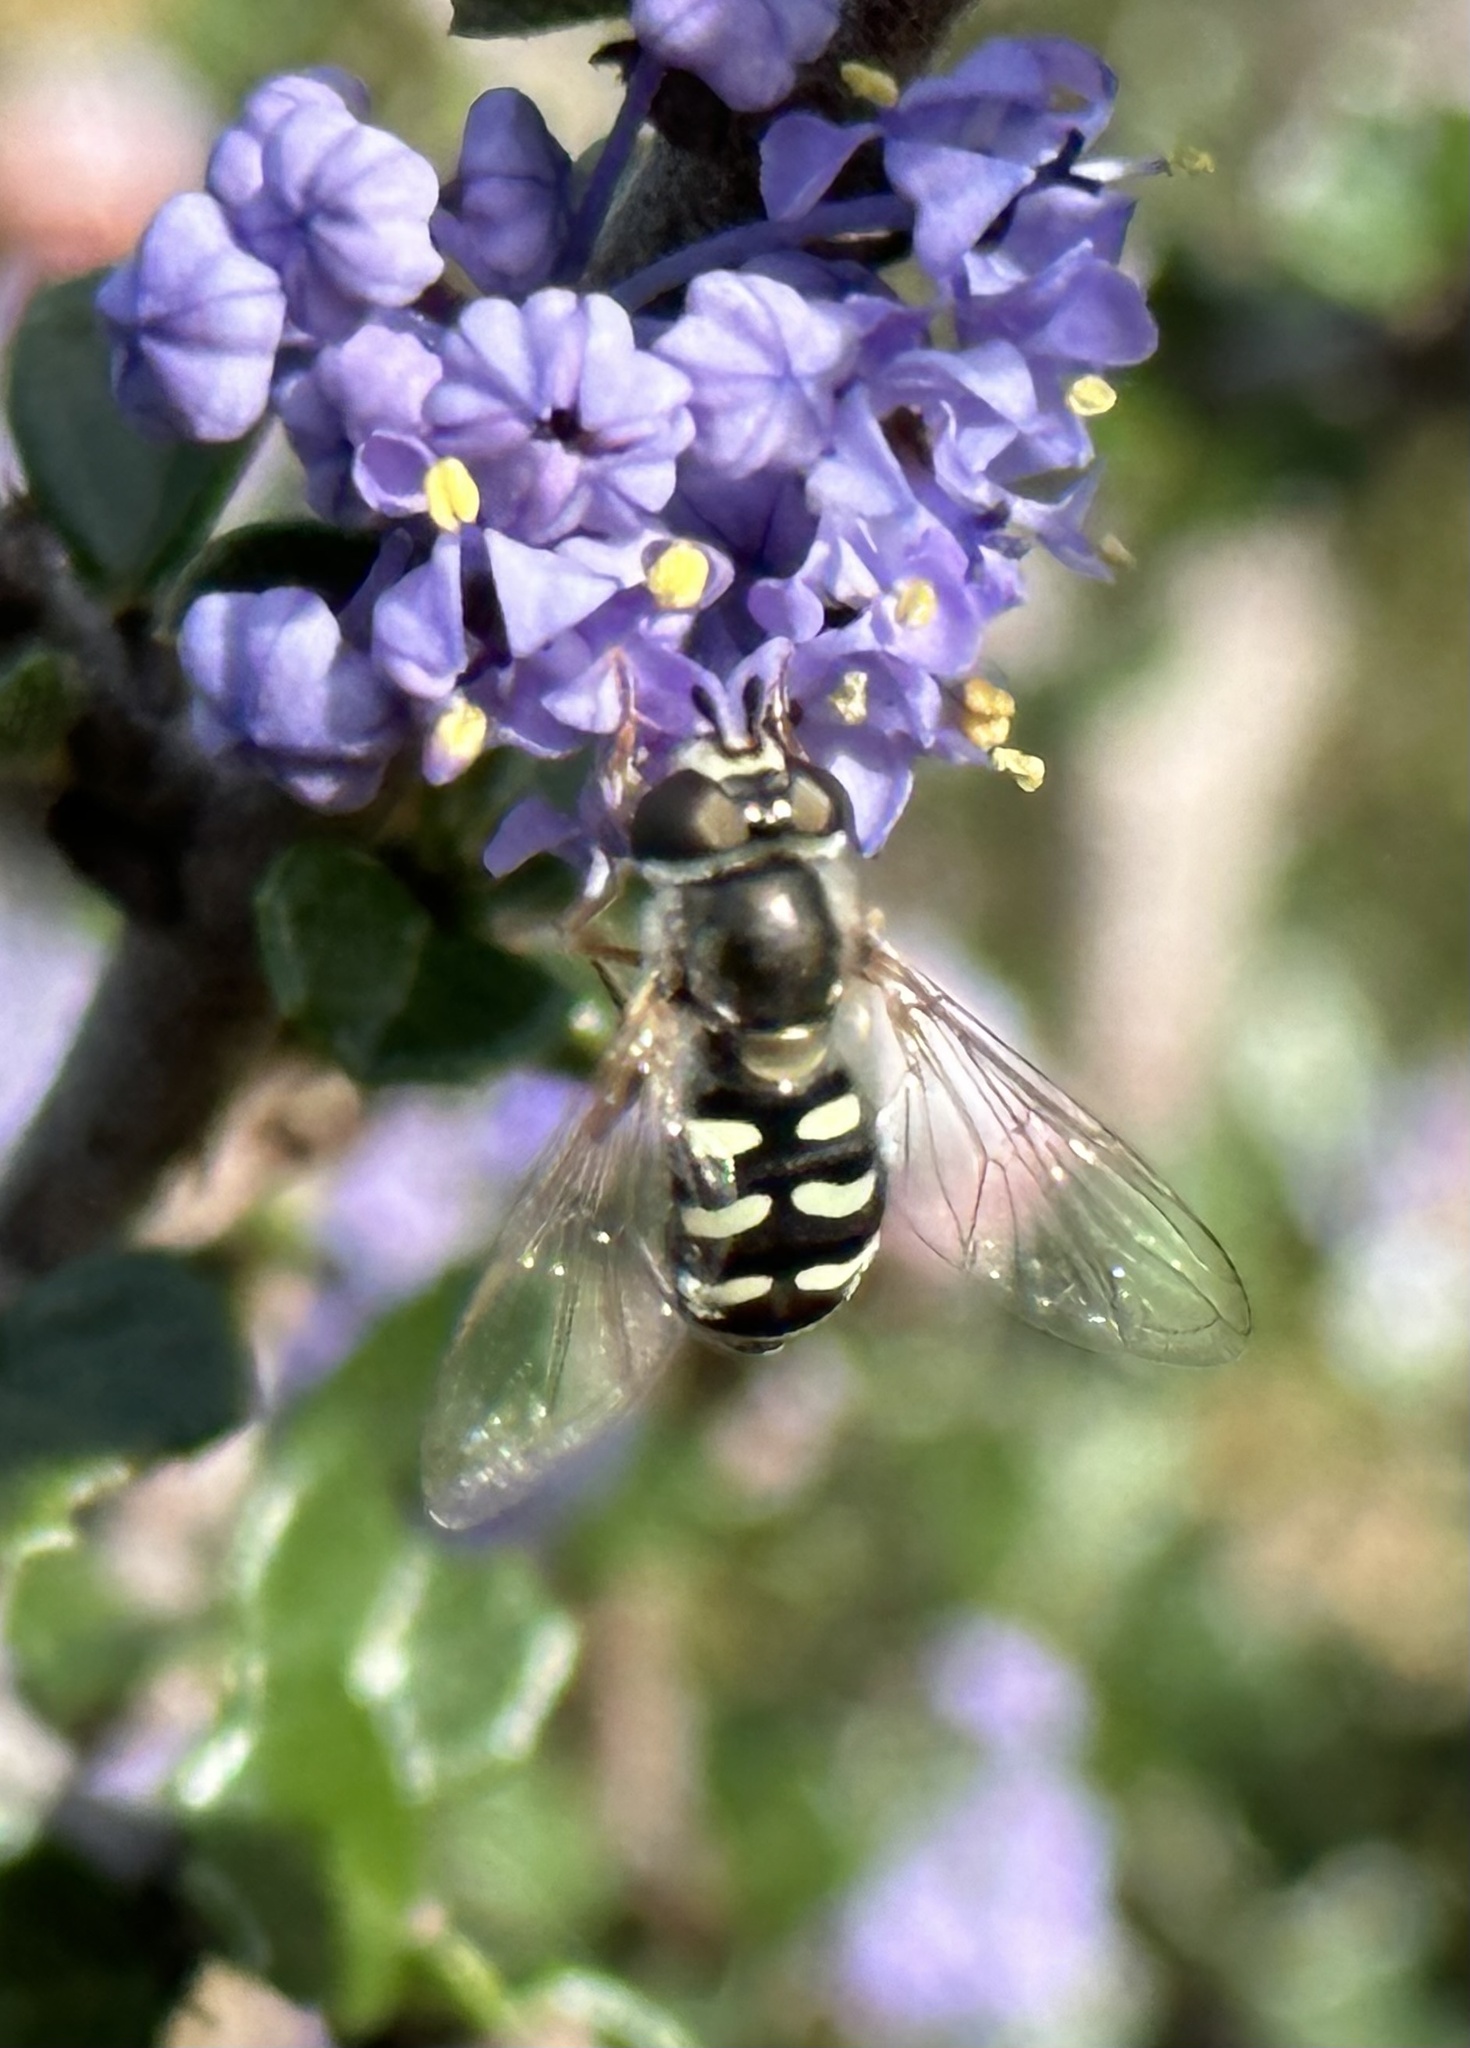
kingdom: Animalia
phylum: Arthropoda
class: Insecta
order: Diptera
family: Syrphidae
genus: Eupeodes
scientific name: Eupeodes volucris
